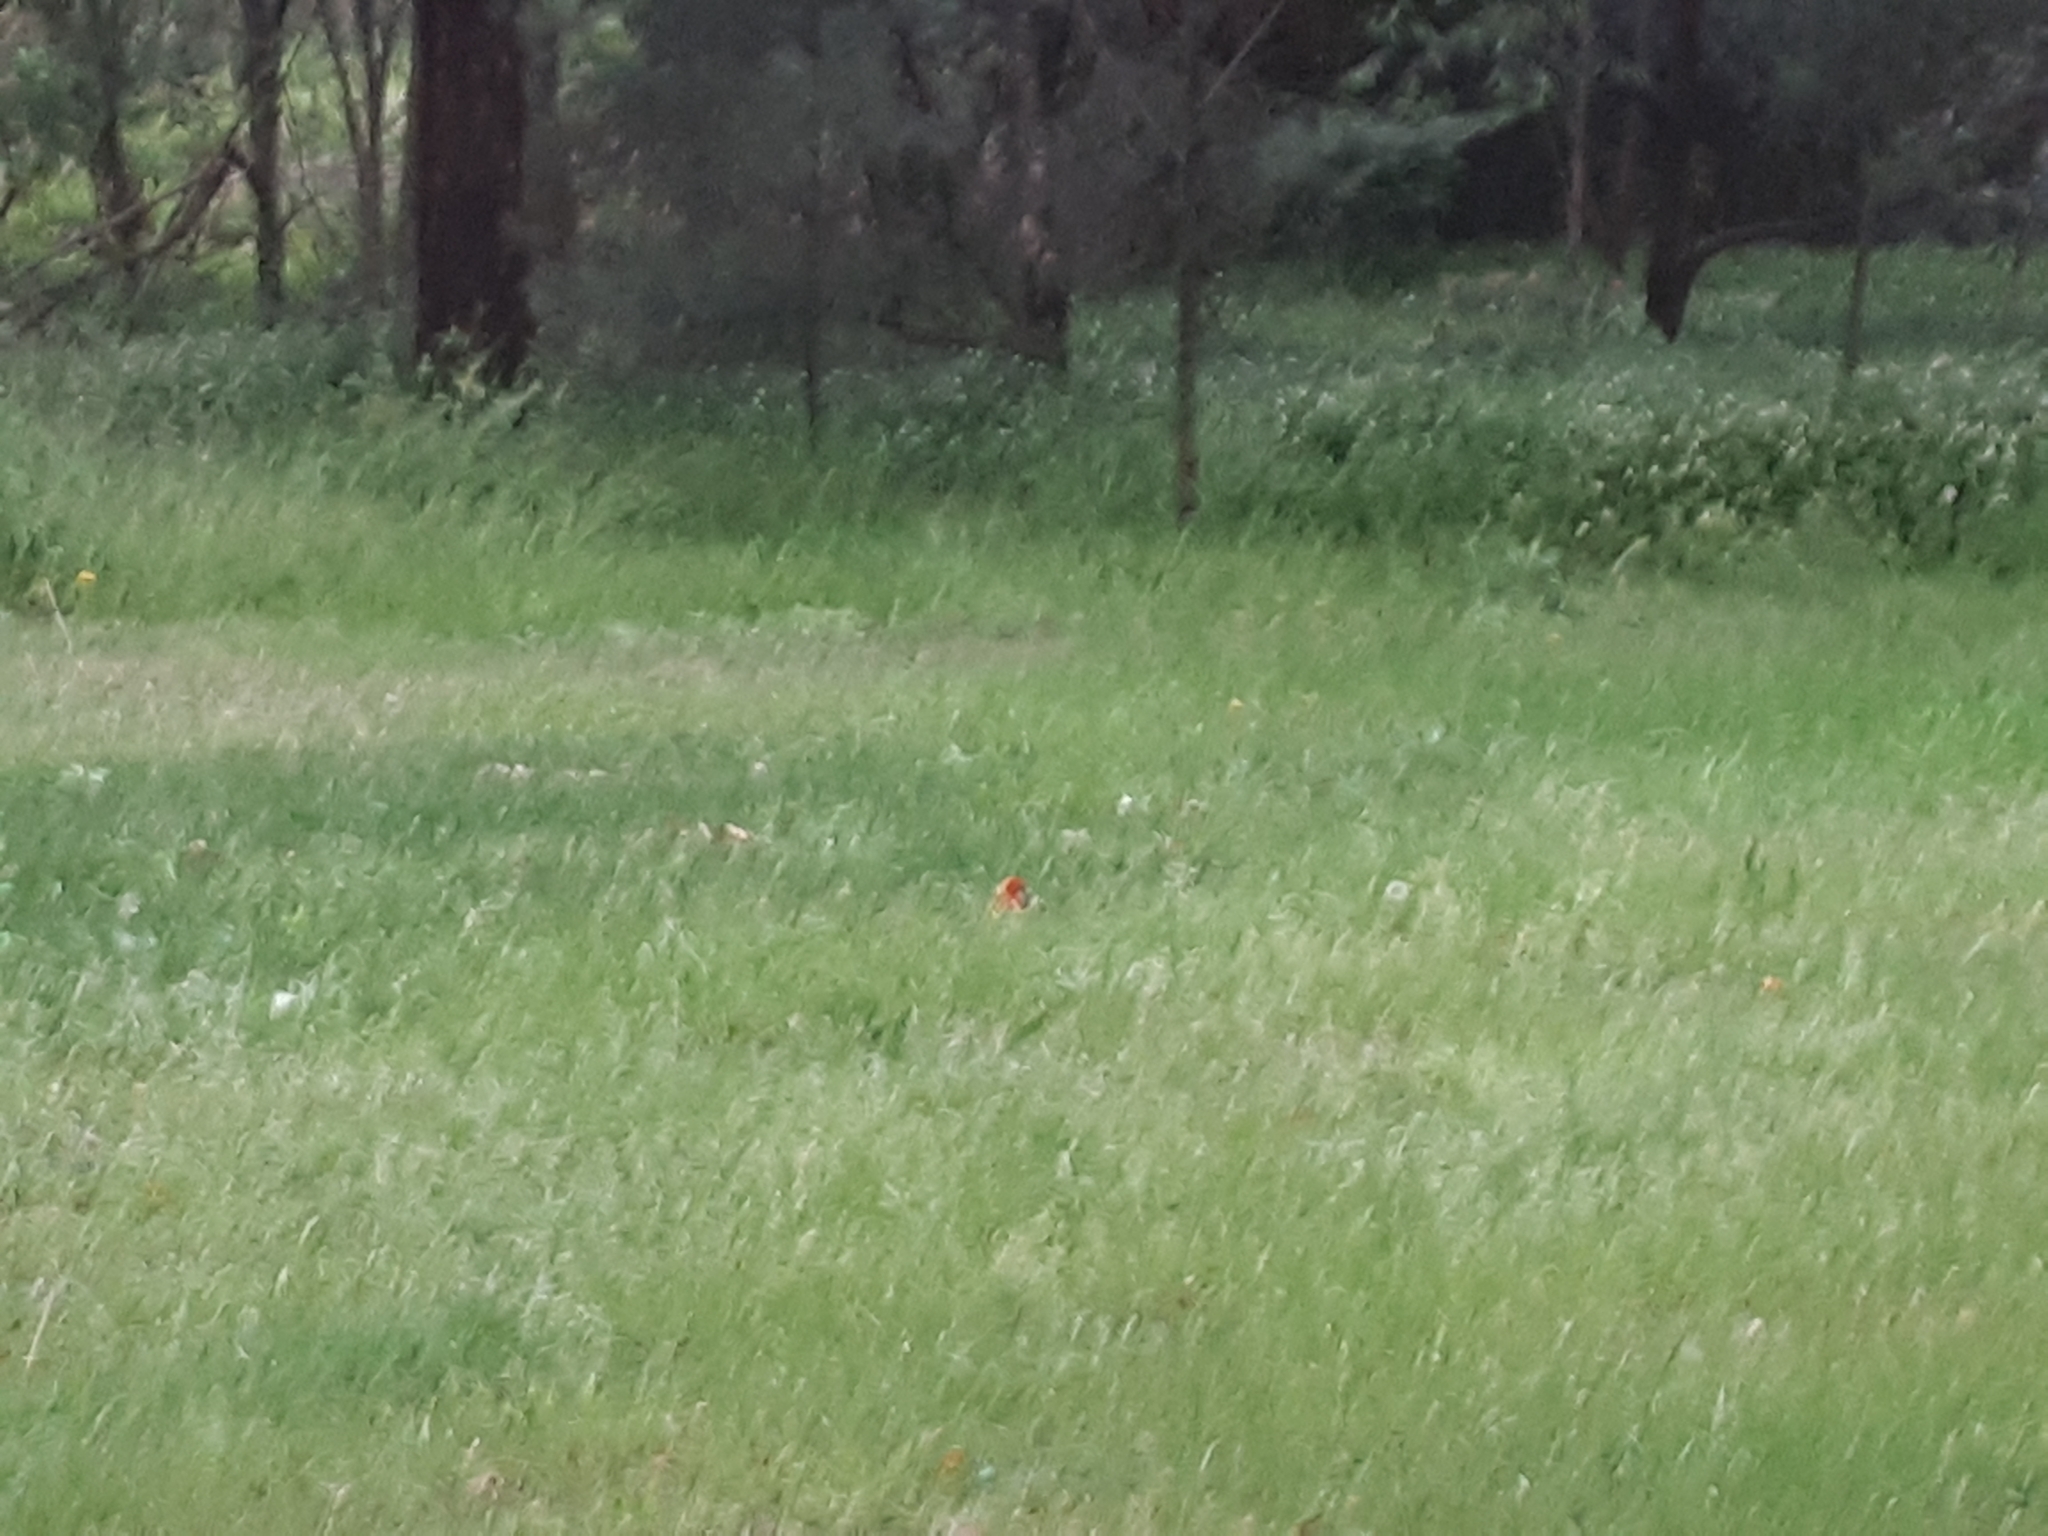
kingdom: Animalia
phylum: Chordata
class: Aves
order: Psittaciformes
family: Psittacidae
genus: Platycercus
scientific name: Platycercus eximius
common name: Eastern rosella
